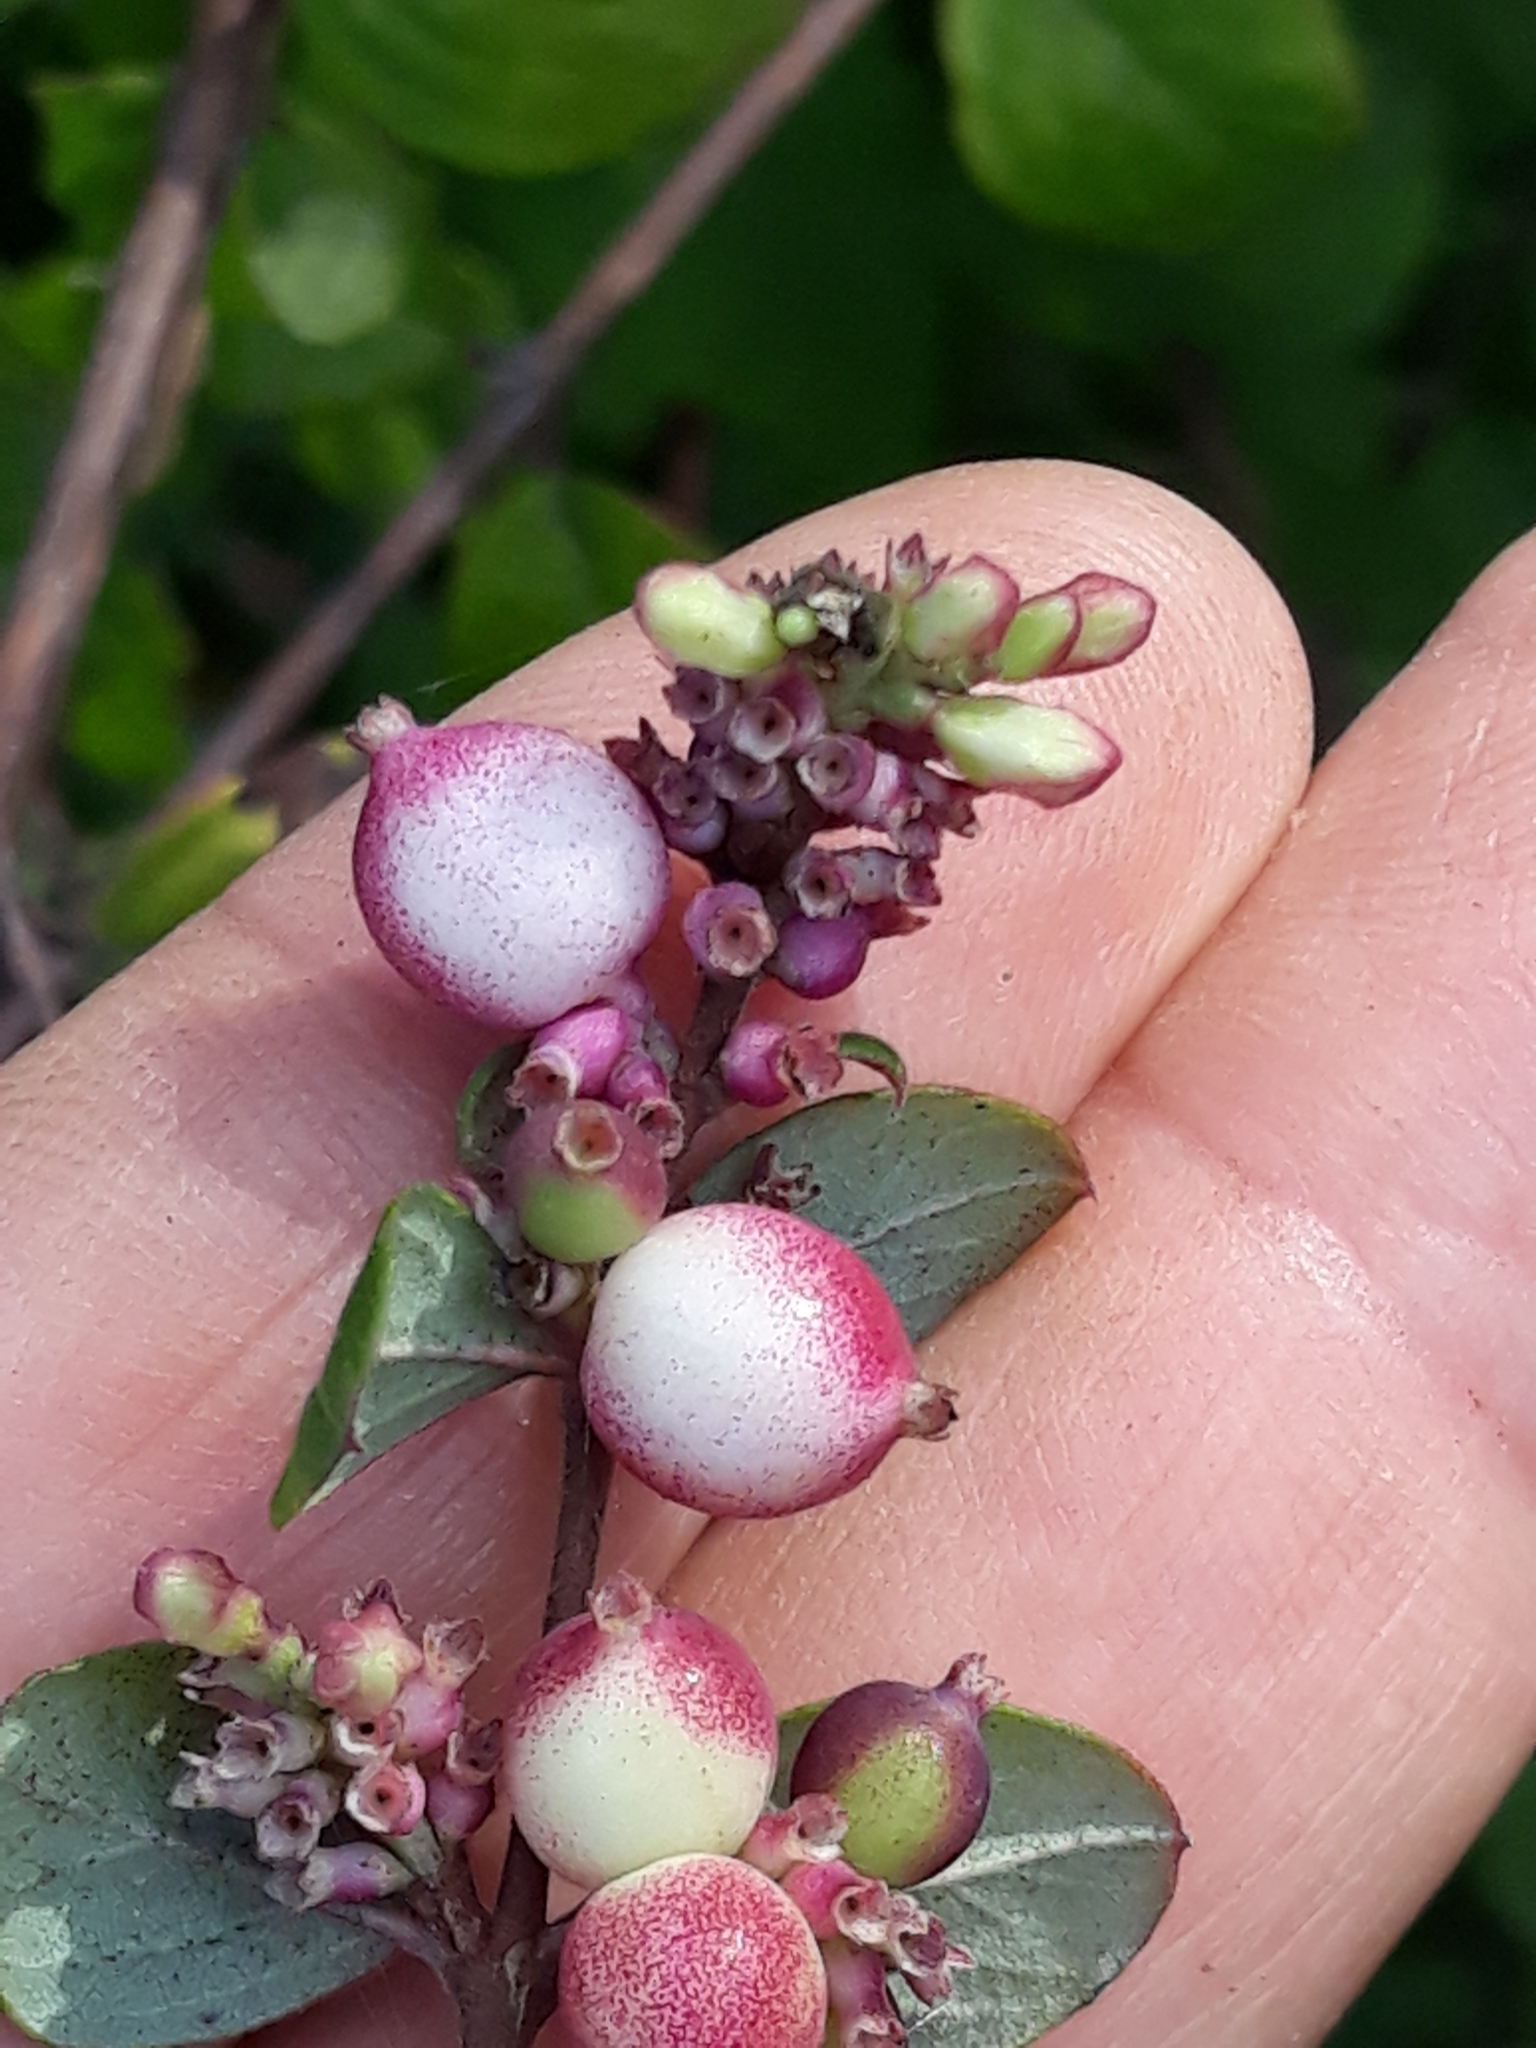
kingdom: Plantae
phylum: Tracheophyta
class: Magnoliopsida
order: Dipsacales
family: Caprifoliaceae
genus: Symphoricarpos
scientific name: Symphoricarpos orbiculatus
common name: Coralberry
